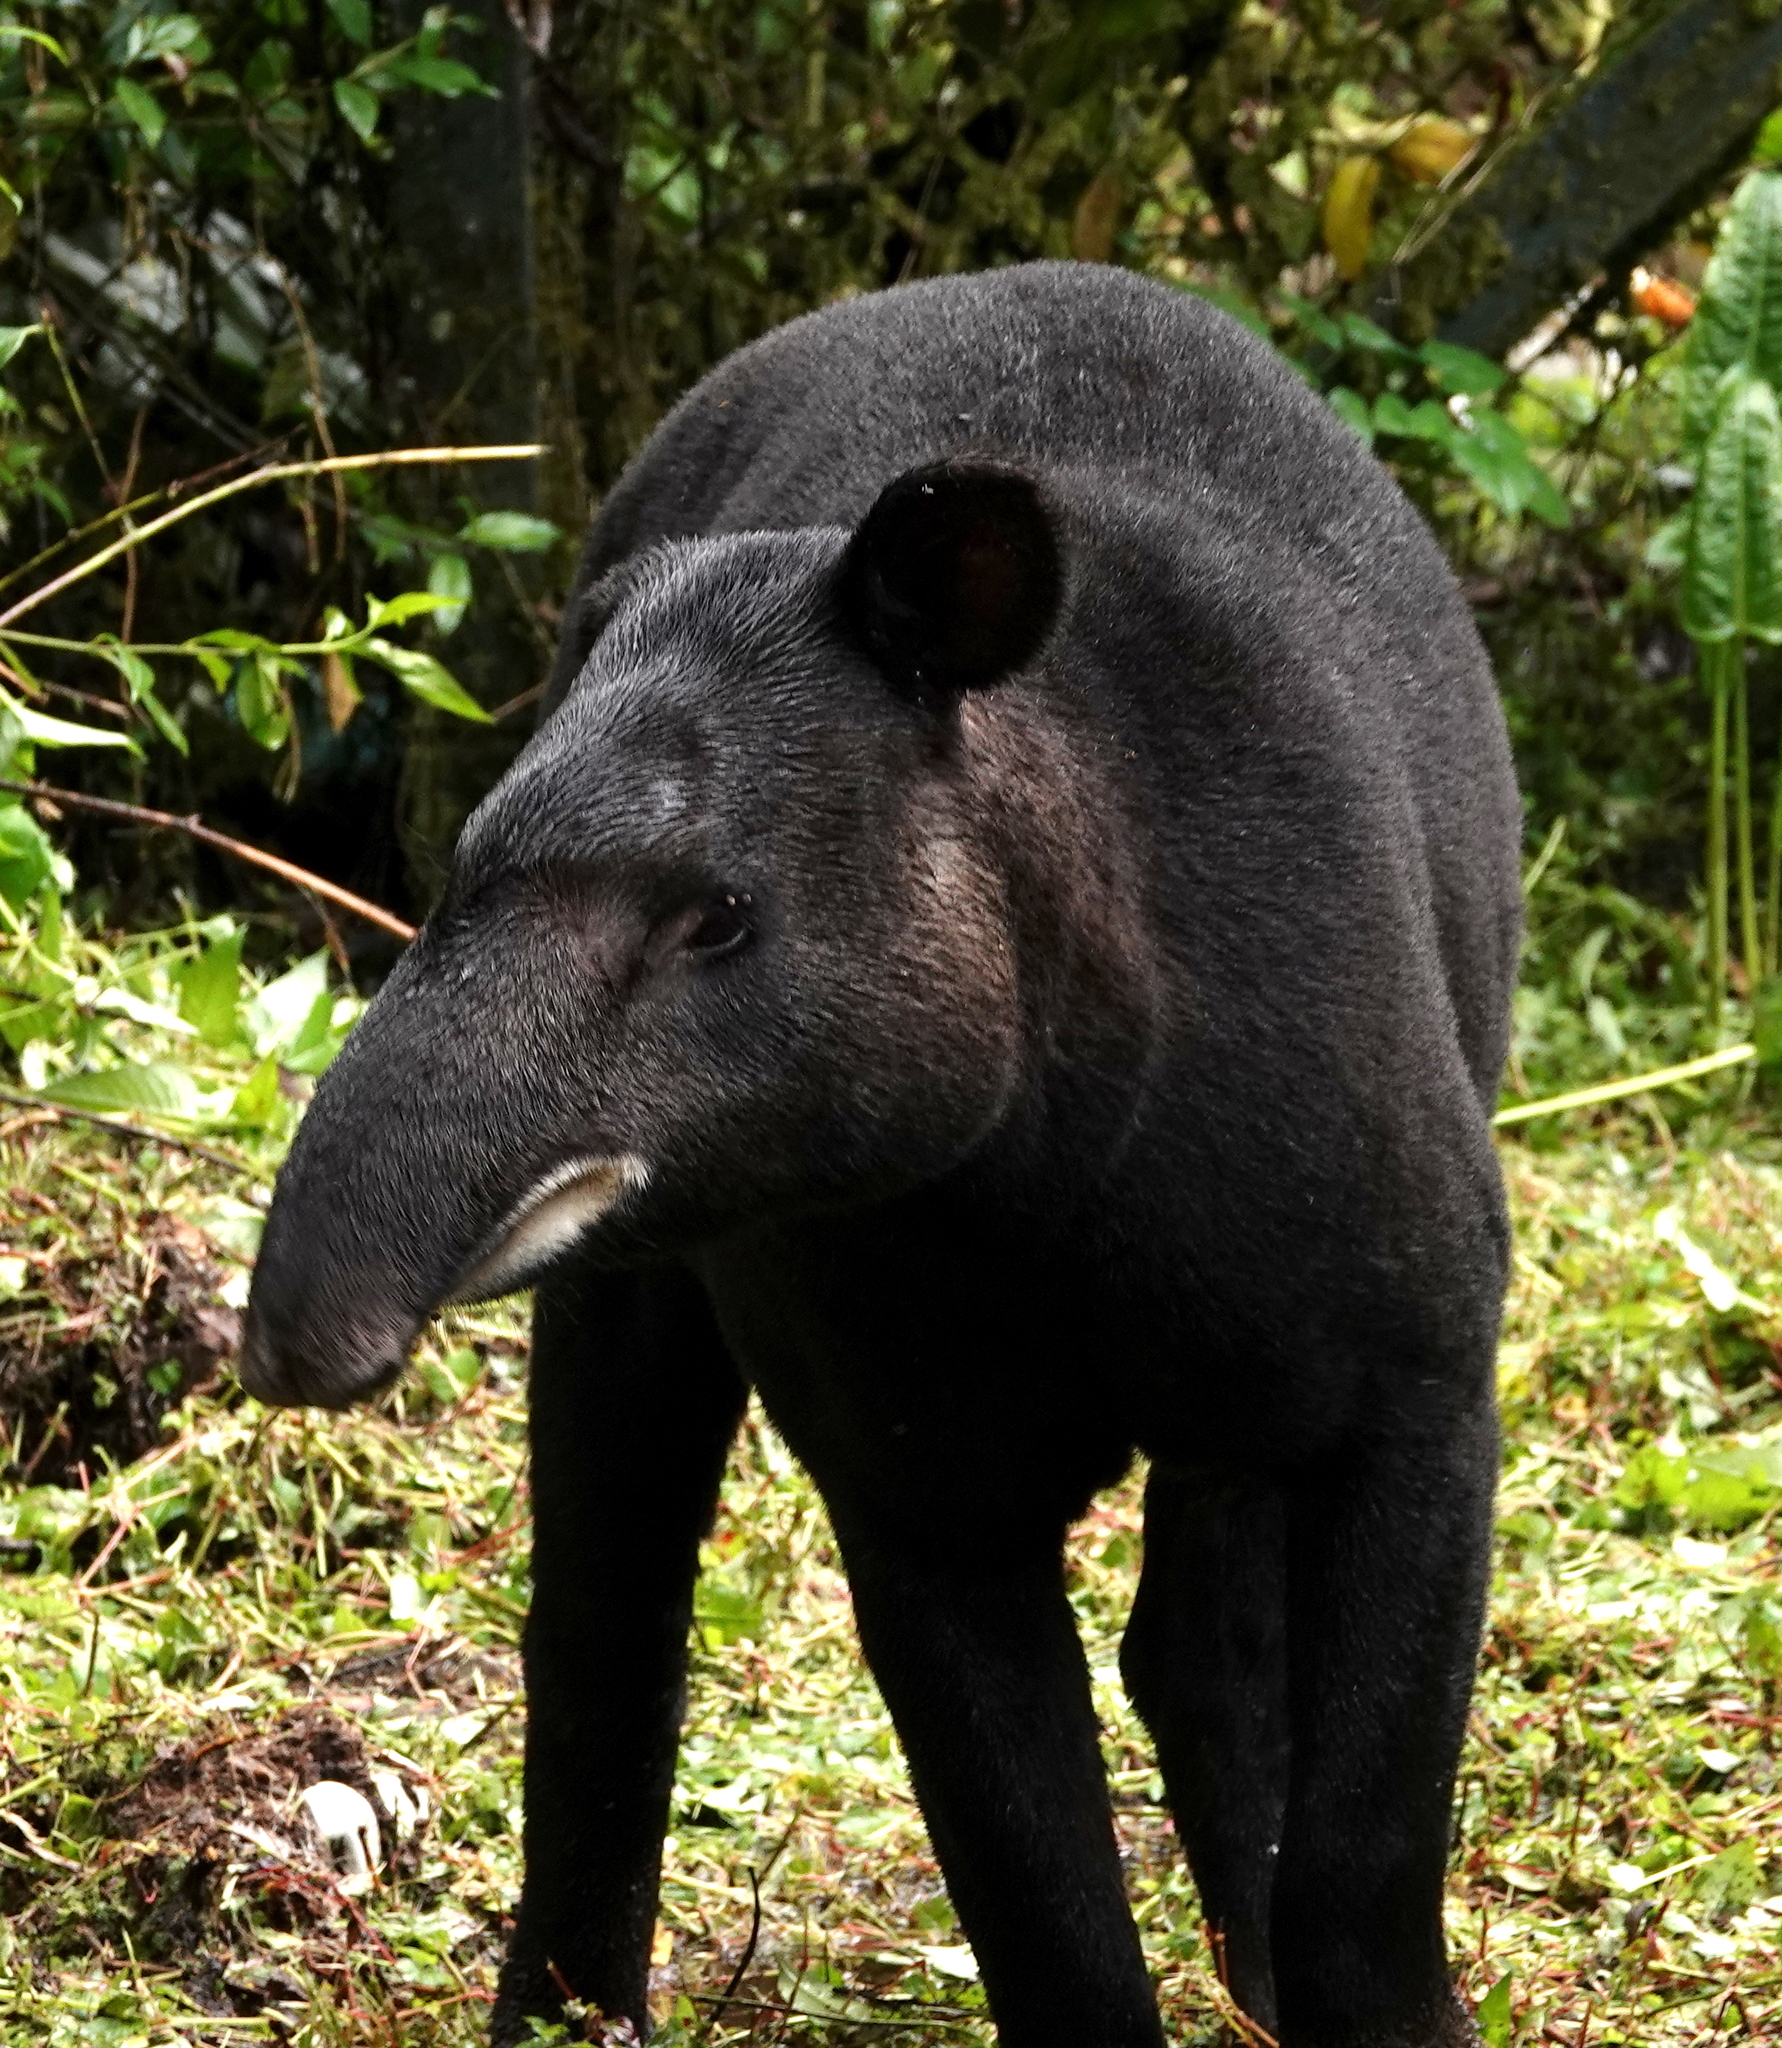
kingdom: Animalia
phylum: Chordata
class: Mammalia
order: Perissodactyla
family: Tapiridae
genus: Tapirus
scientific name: Tapirus pinchaque
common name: Mountain tapir
